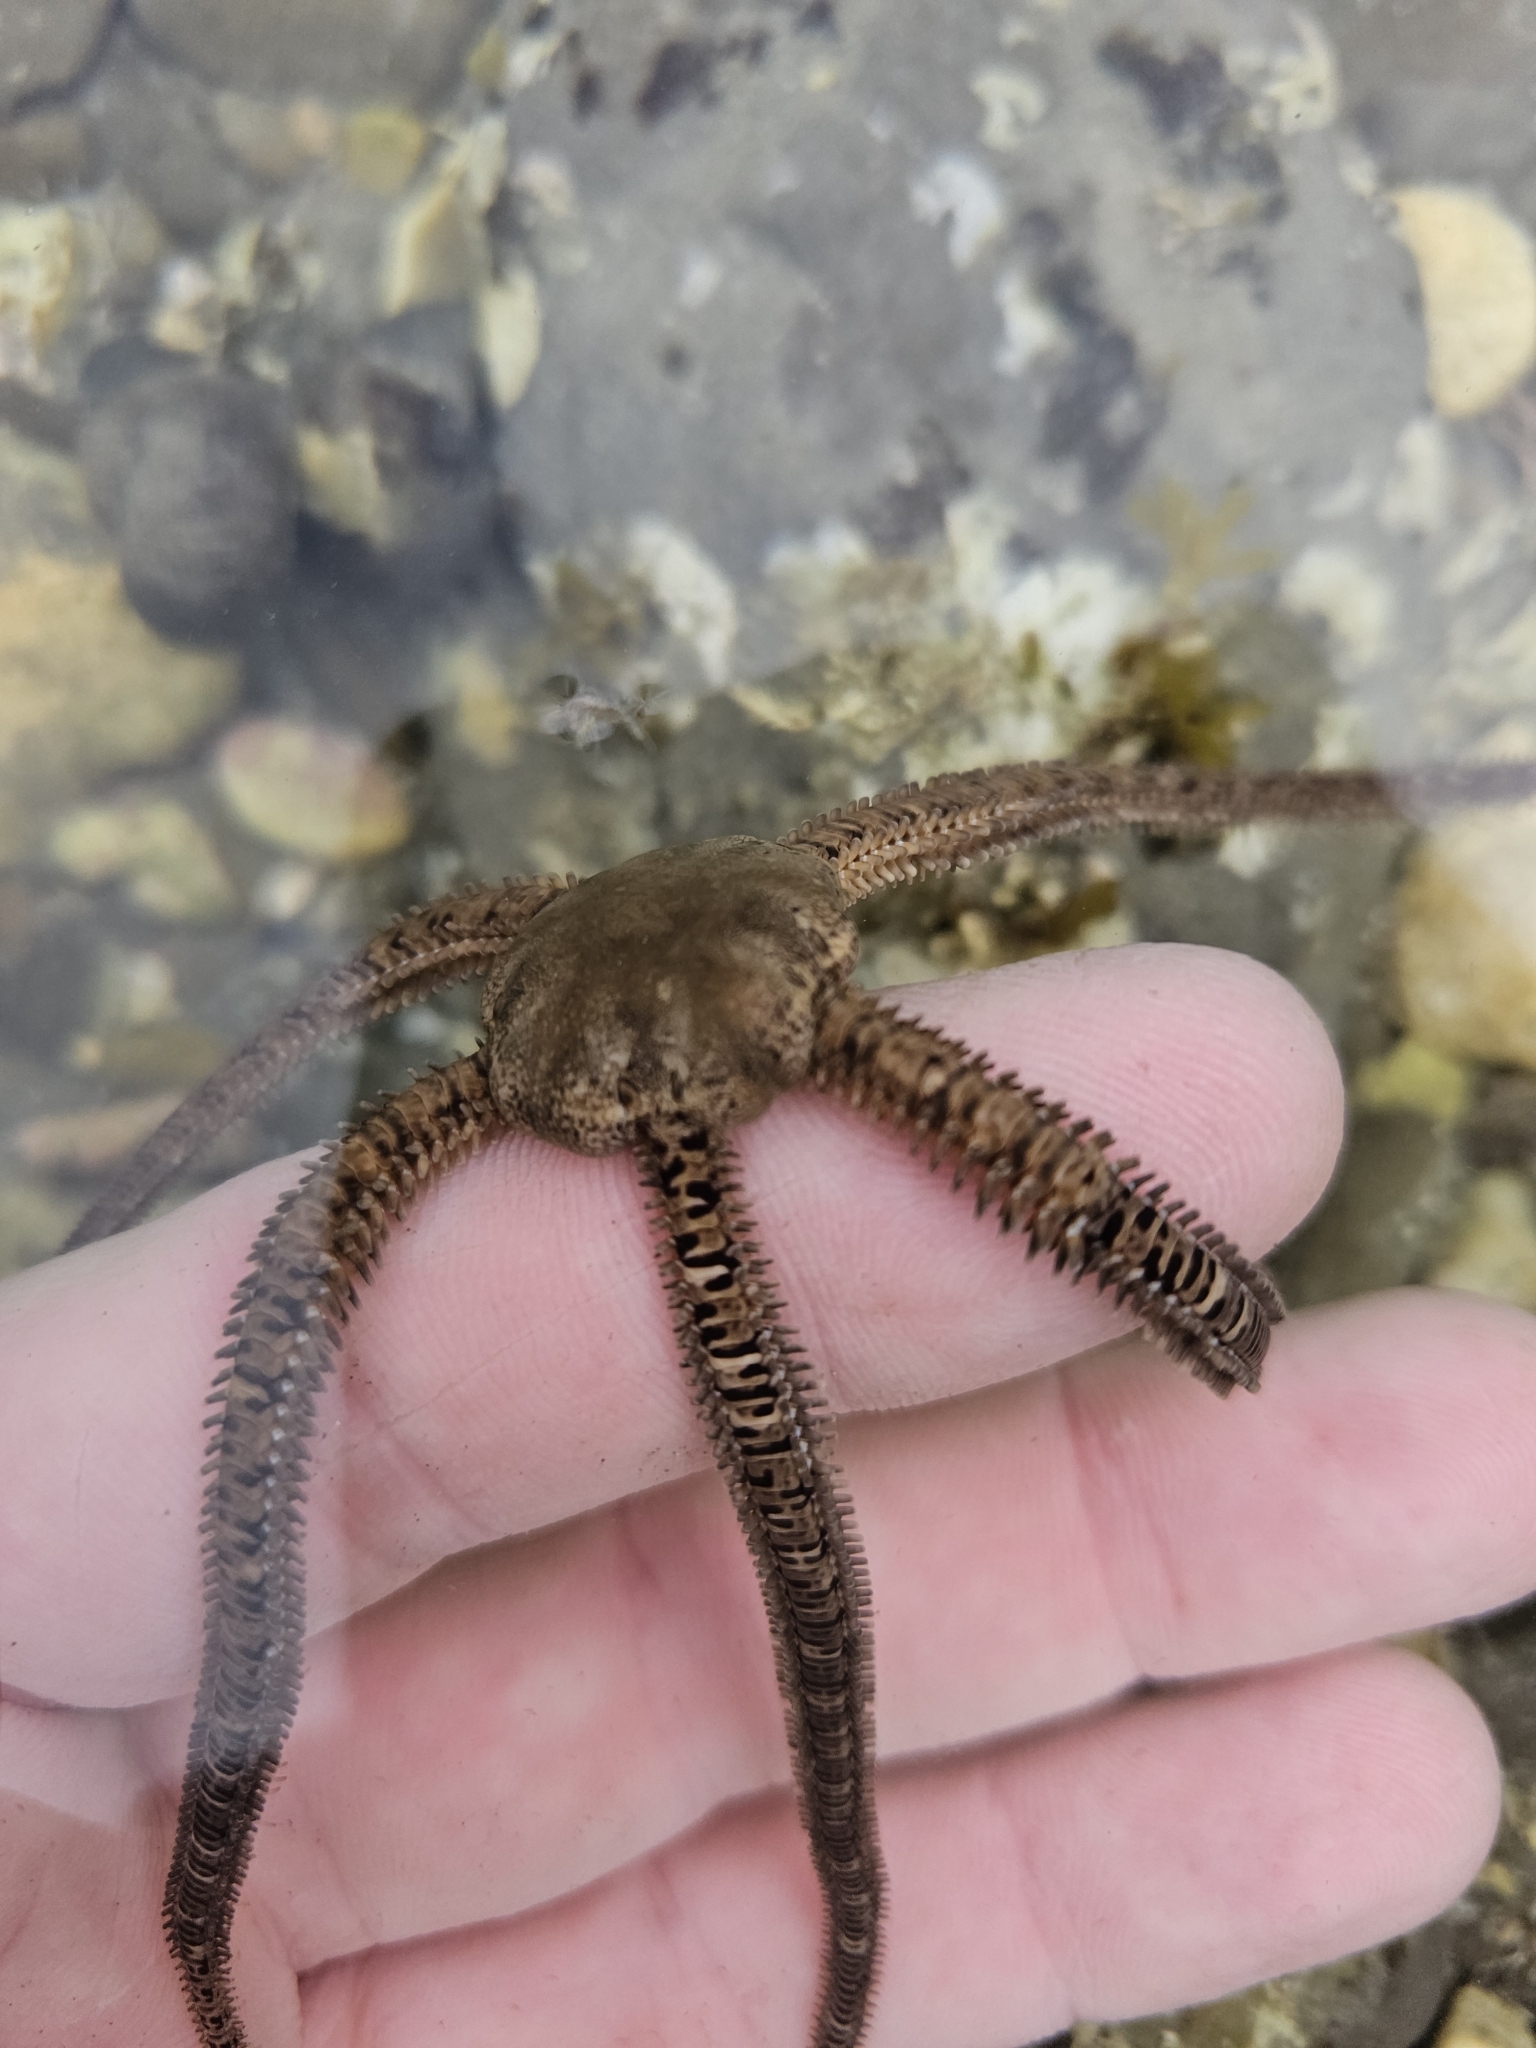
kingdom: Animalia
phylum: Echinodermata
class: Ophiuroidea
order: Amphilepidida
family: Ophionereididae
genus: Ophionereis
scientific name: Ophionereis fasciata
